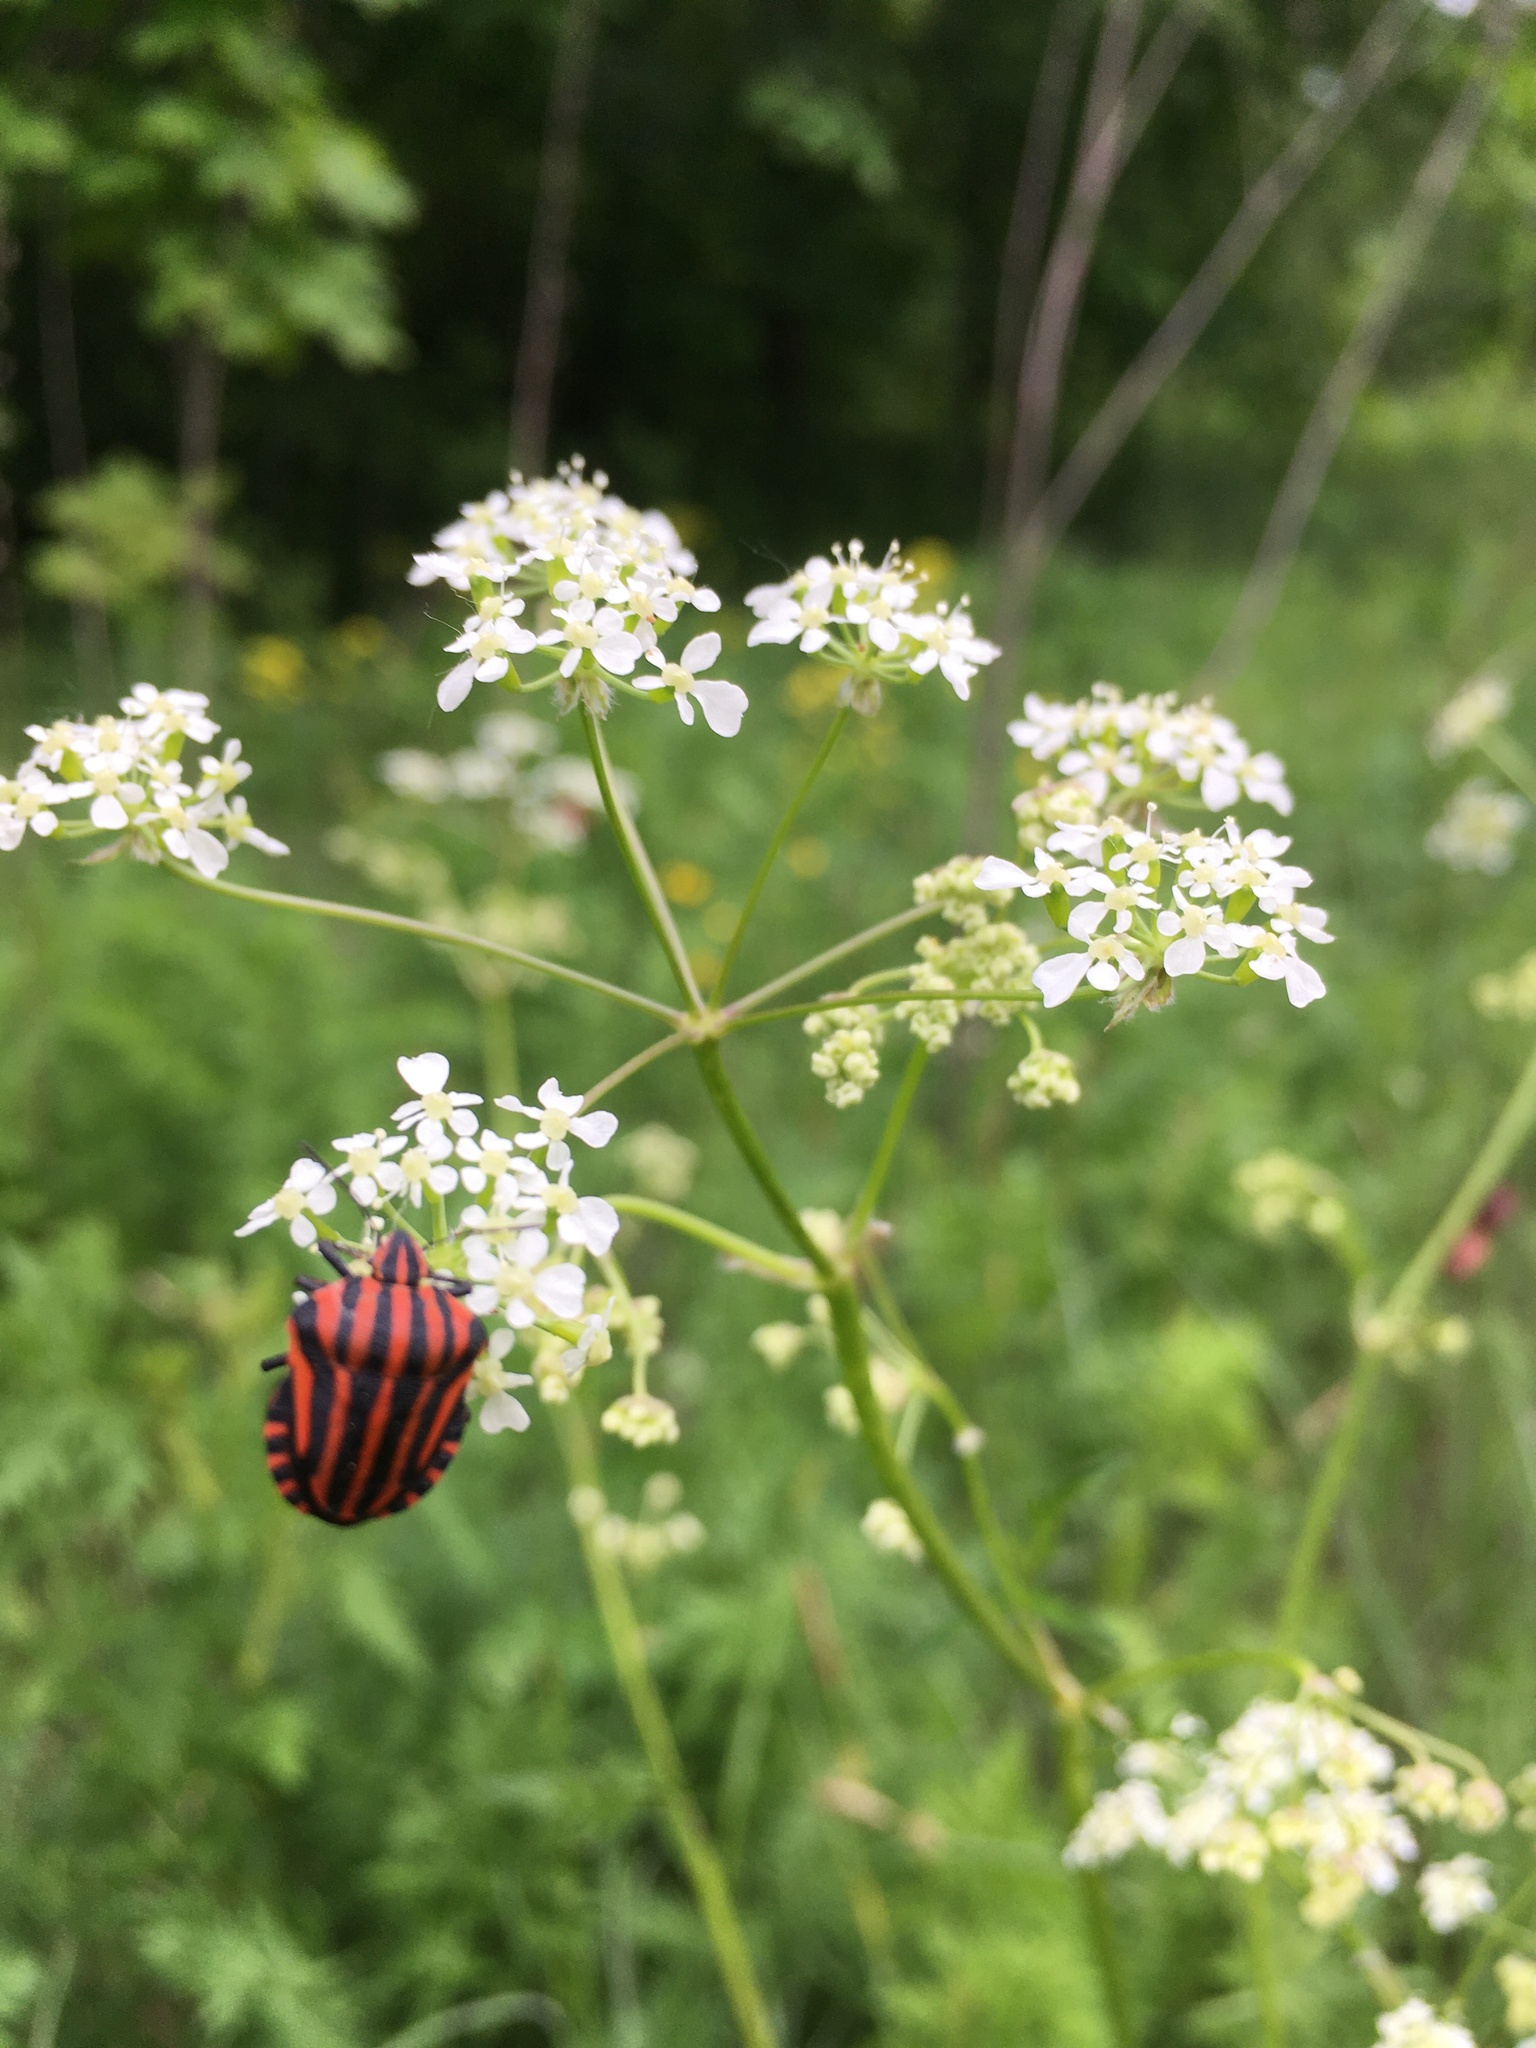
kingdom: Animalia
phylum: Arthropoda
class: Insecta
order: Hemiptera
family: Pentatomidae
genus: Graphosoma
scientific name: Graphosoma italicum
